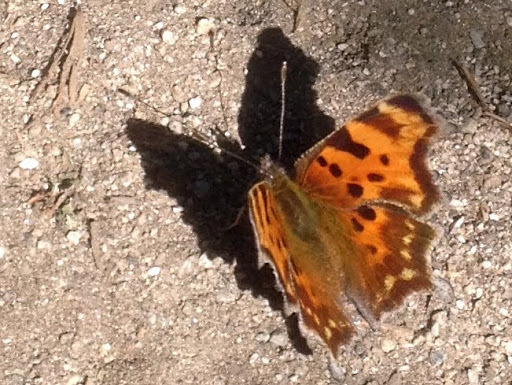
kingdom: Animalia
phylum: Arthropoda
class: Insecta
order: Lepidoptera
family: Nymphalidae
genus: Polygonia
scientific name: Polygonia faunus
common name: Green comma
